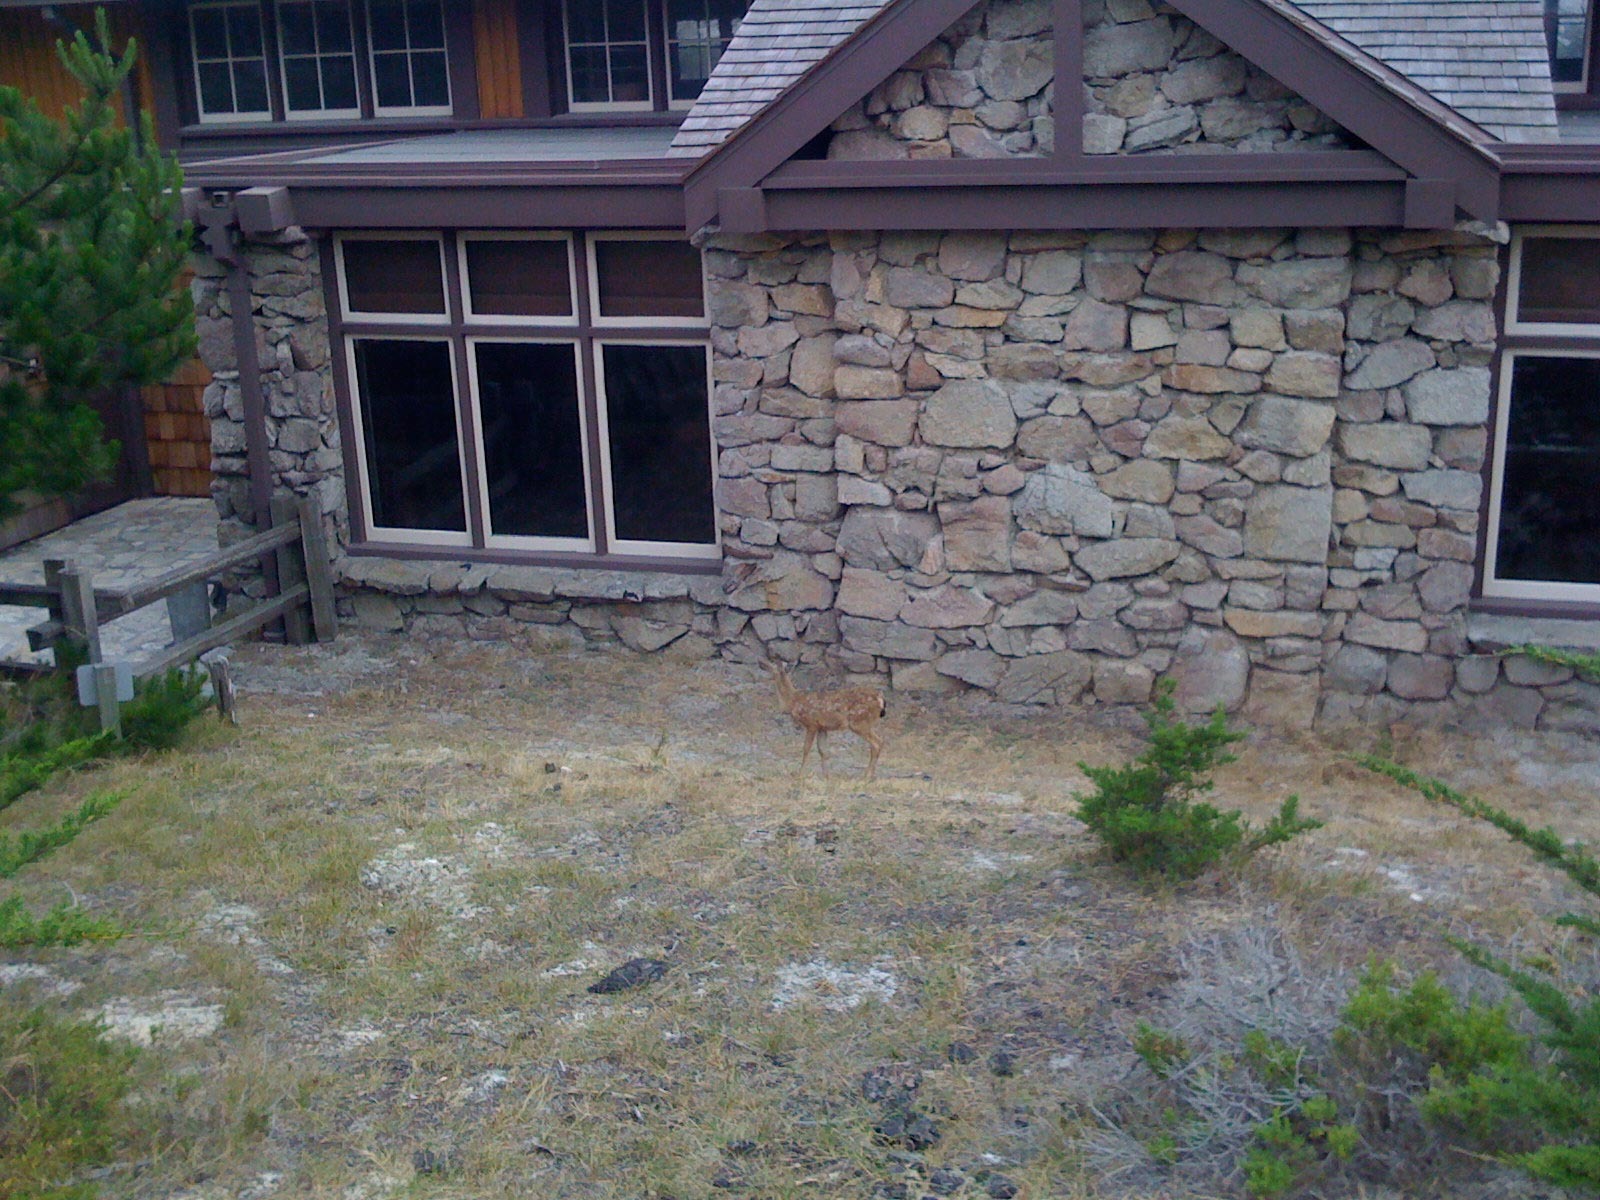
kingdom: Animalia
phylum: Chordata
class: Mammalia
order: Artiodactyla
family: Cervidae
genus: Odocoileus
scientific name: Odocoileus hemionus
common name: Mule deer
